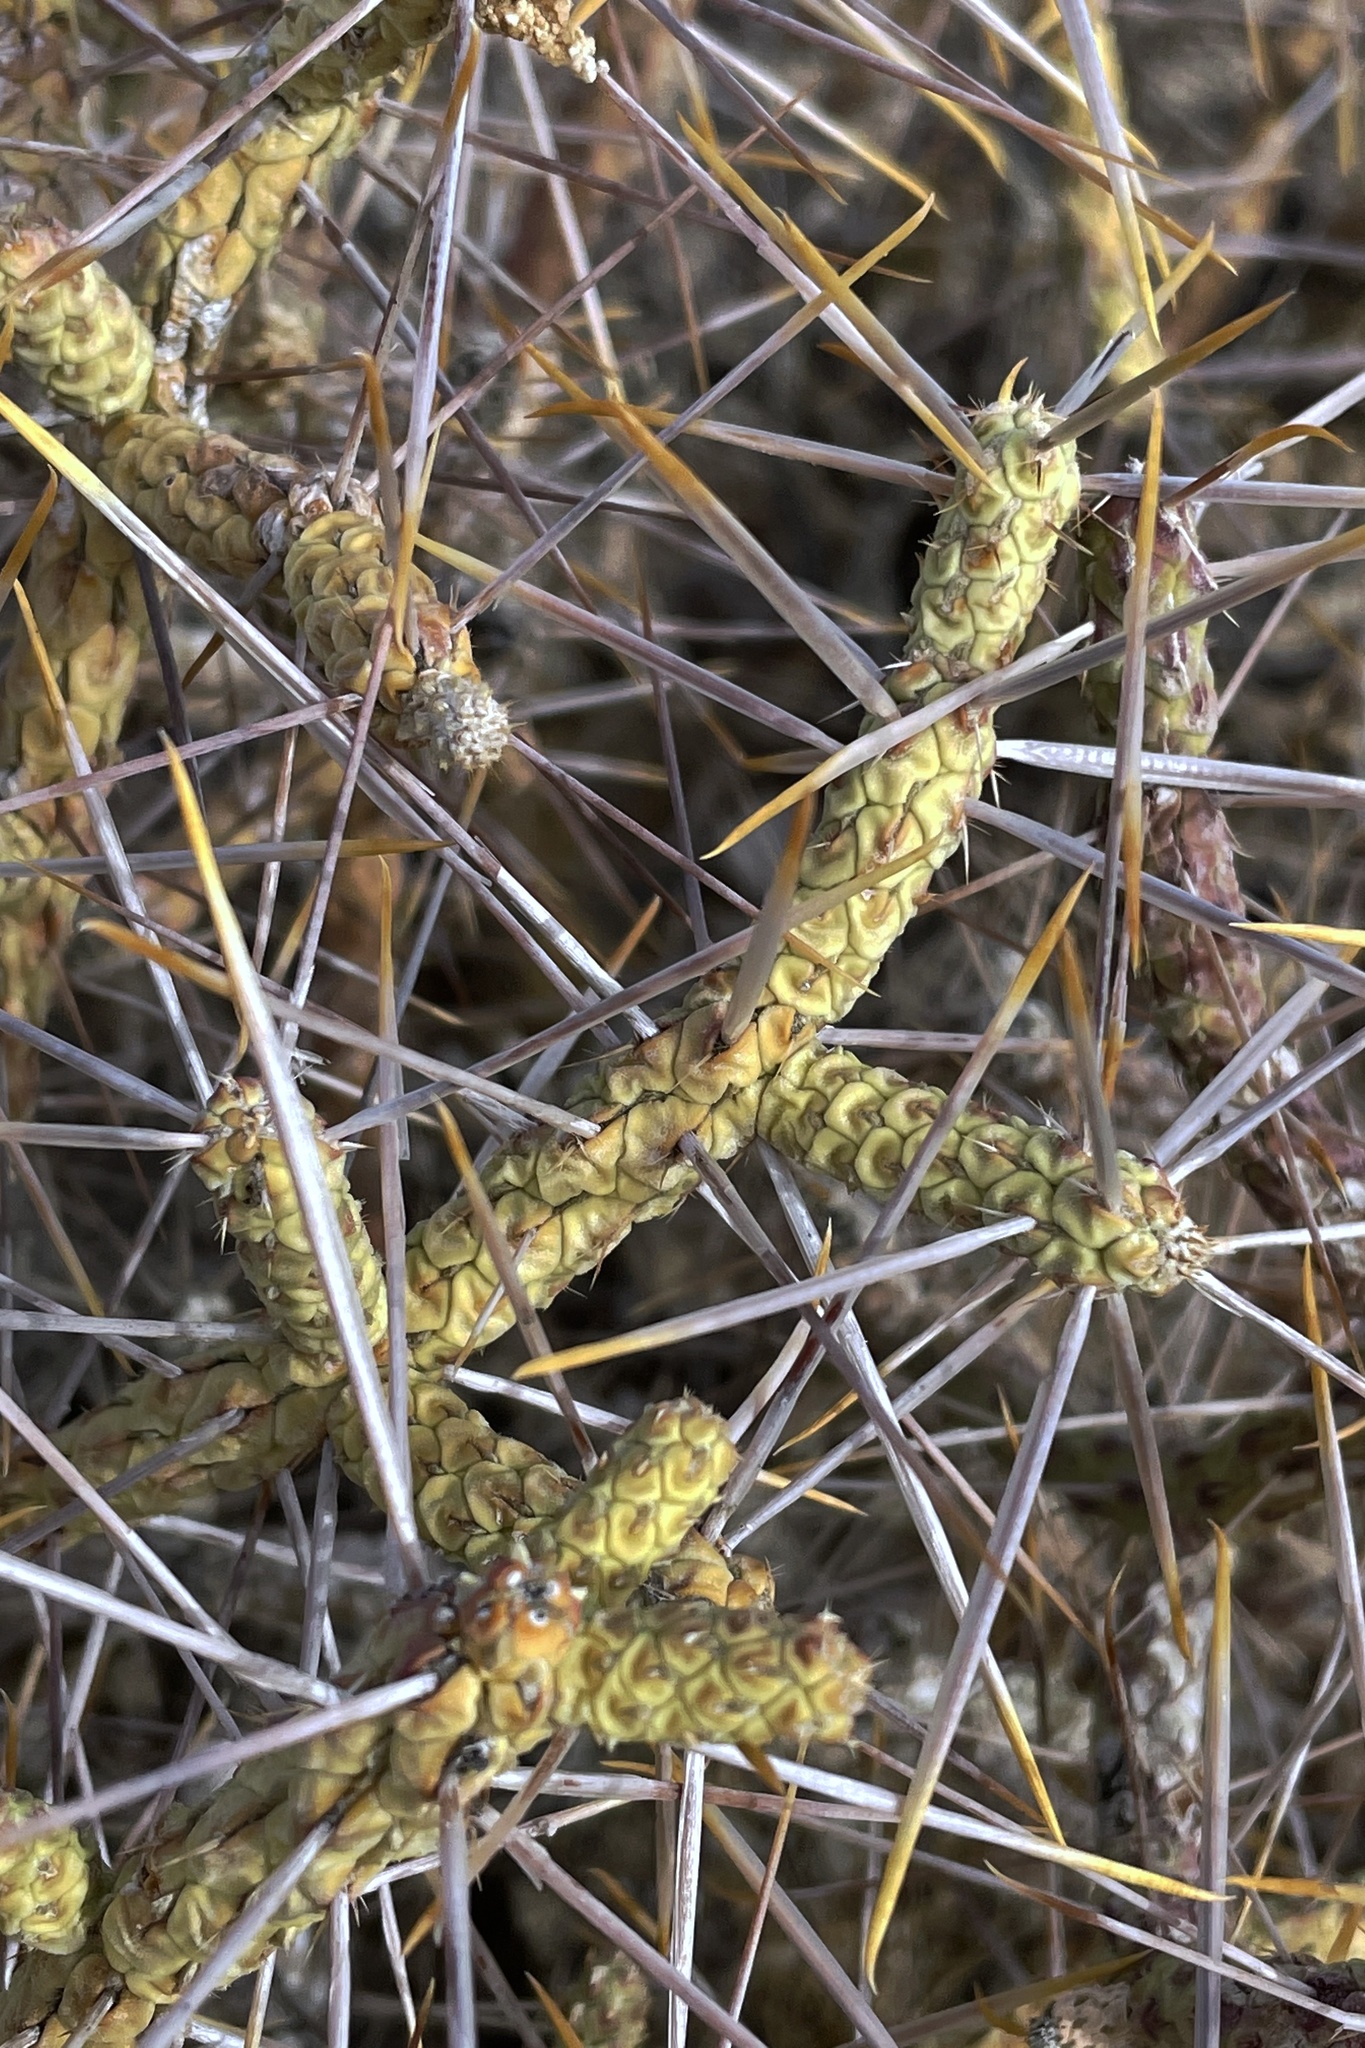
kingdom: Plantae
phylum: Tracheophyta
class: Magnoliopsida
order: Caryophyllales
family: Cactaceae
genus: Cylindropuntia
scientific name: Cylindropuntia ramosissima
